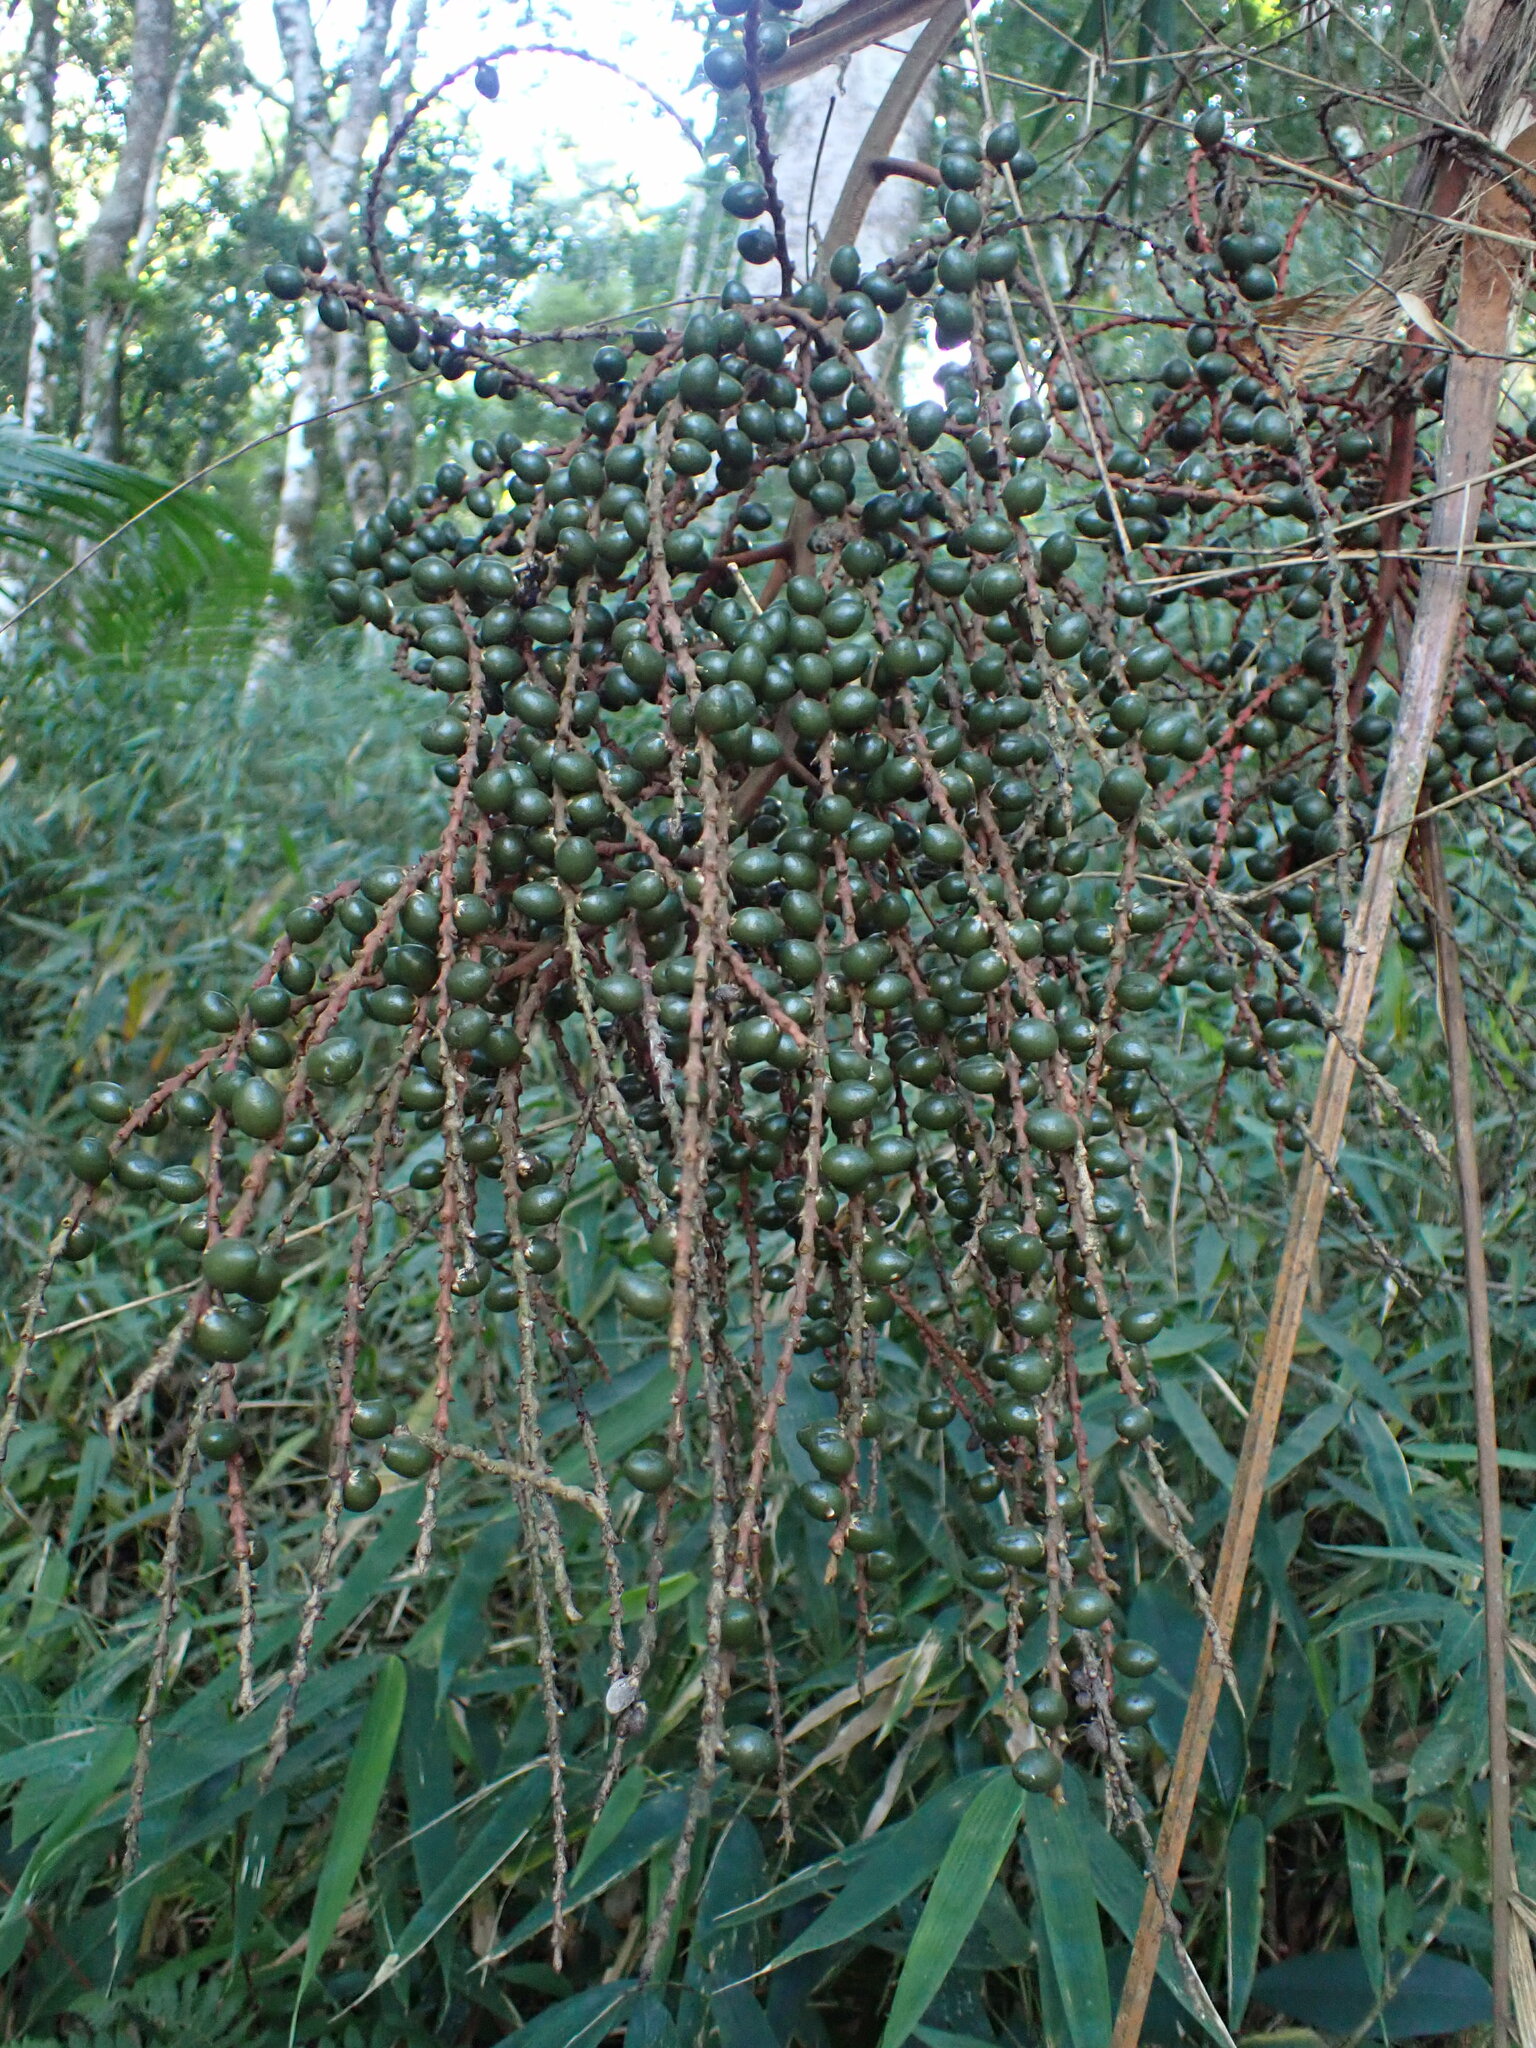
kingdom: Plantae
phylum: Tracheophyta
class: Liliopsida
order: Arecales
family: Arecaceae
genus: Geonoma
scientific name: Geonoma schottiana
